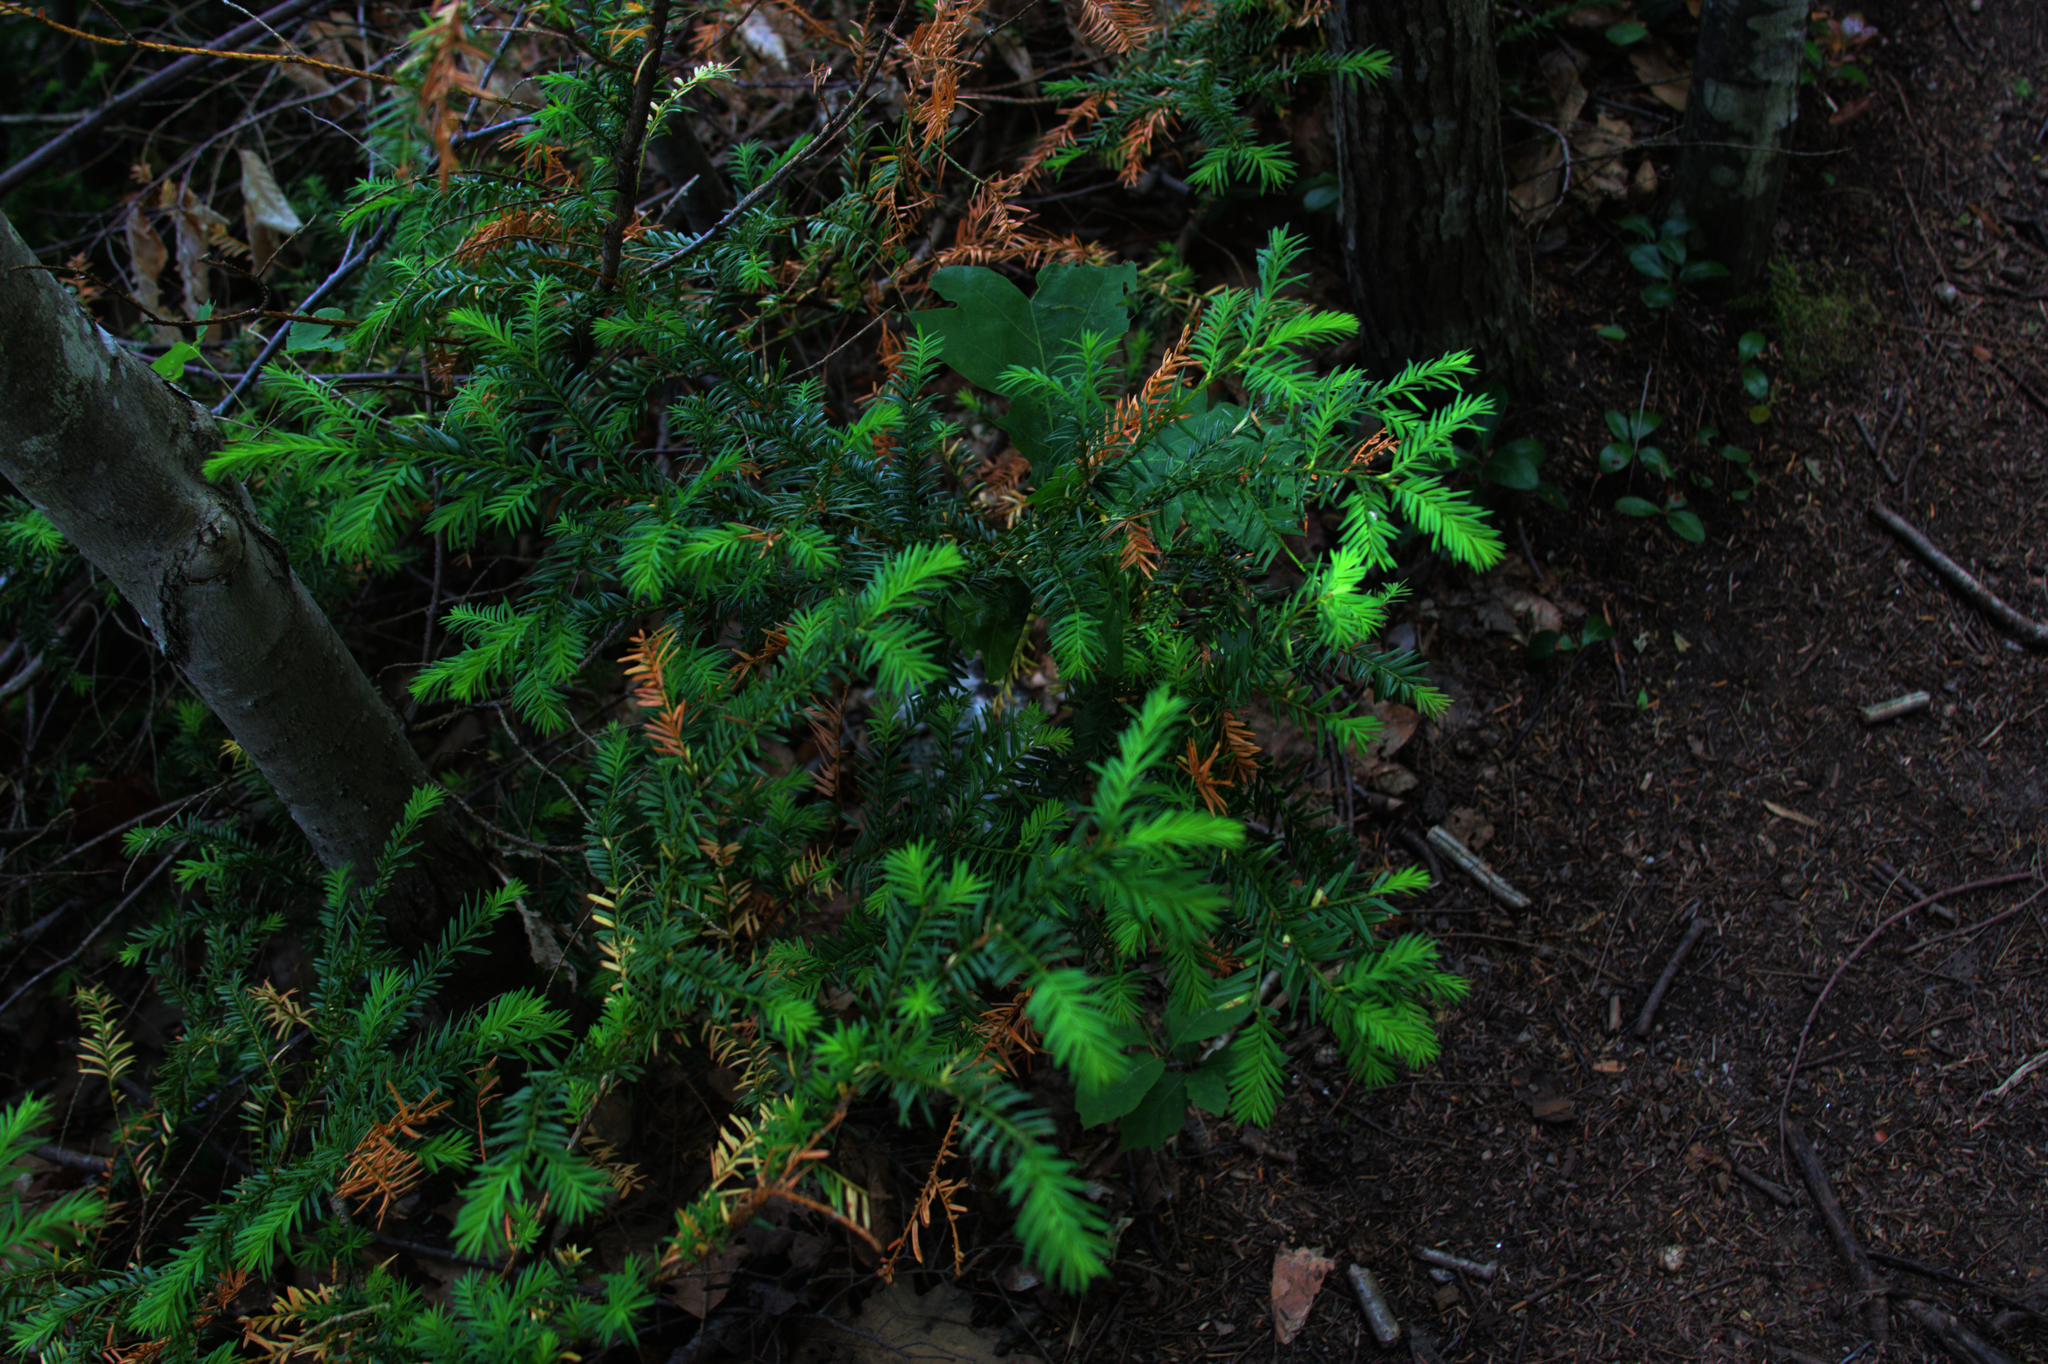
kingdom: Plantae
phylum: Tracheophyta
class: Pinopsida
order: Pinales
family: Taxaceae
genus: Taxus
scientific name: Taxus canadensis
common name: American yew
